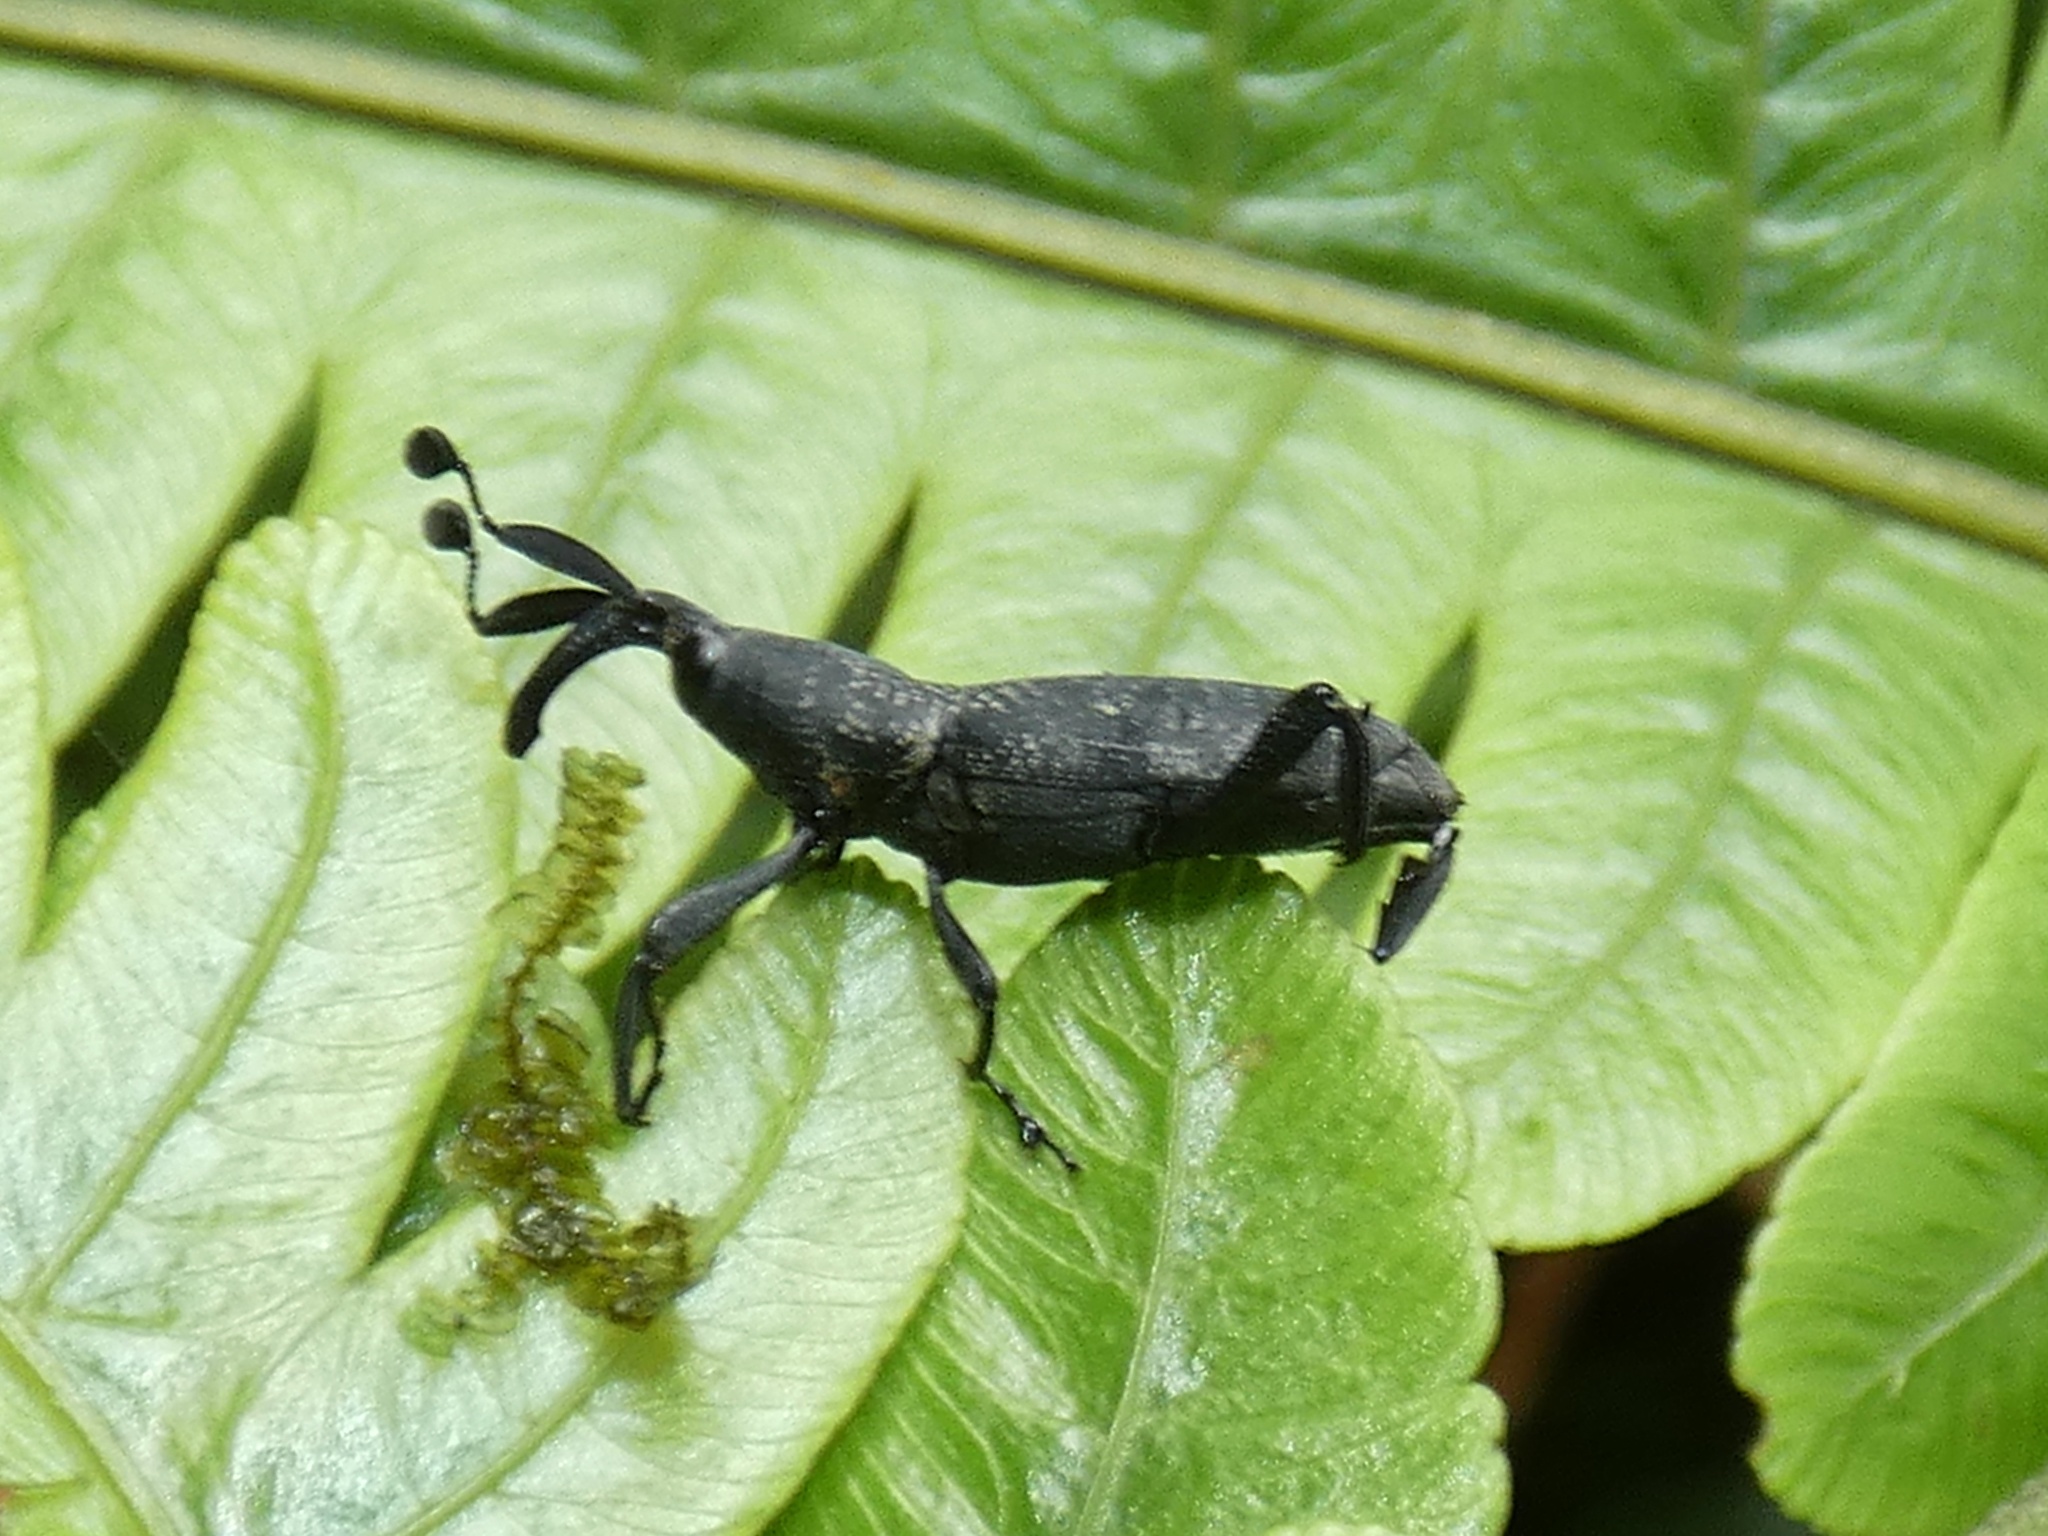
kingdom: Animalia
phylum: Arthropoda
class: Insecta
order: Coleoptera
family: Dryophthoridae
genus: Rhodobaenus
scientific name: Rhodobaenus
